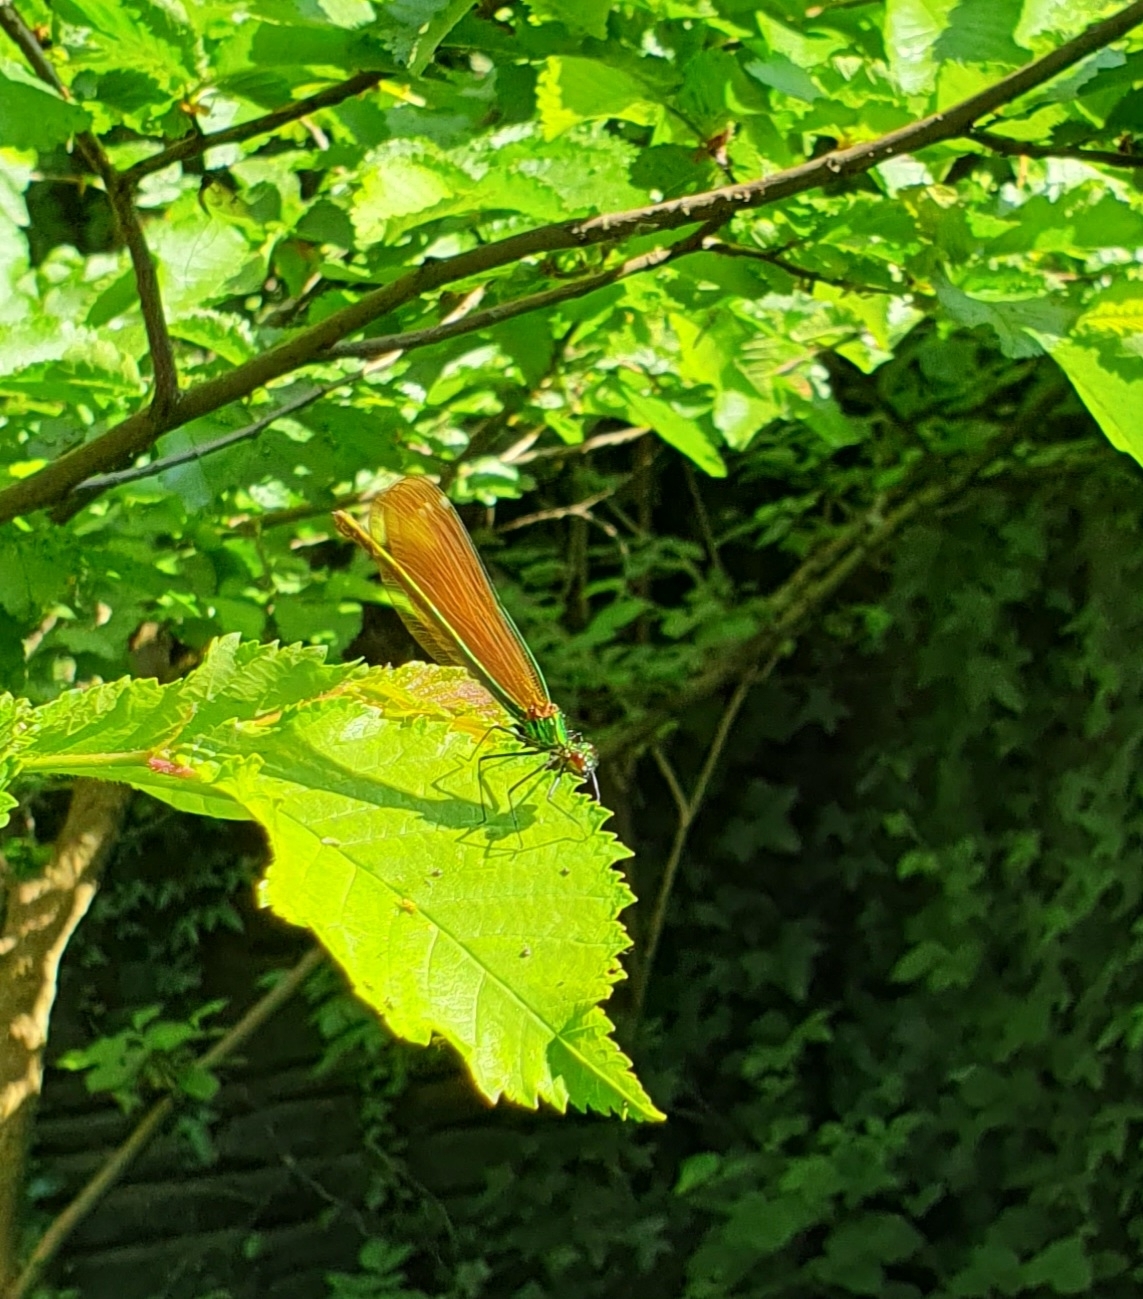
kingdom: Animalia
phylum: Arthropoda
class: Insecta
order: Odonata
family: Calopterygidae
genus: Calopteryx
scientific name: Calopteryx virgo
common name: Beautiful demoiselle
